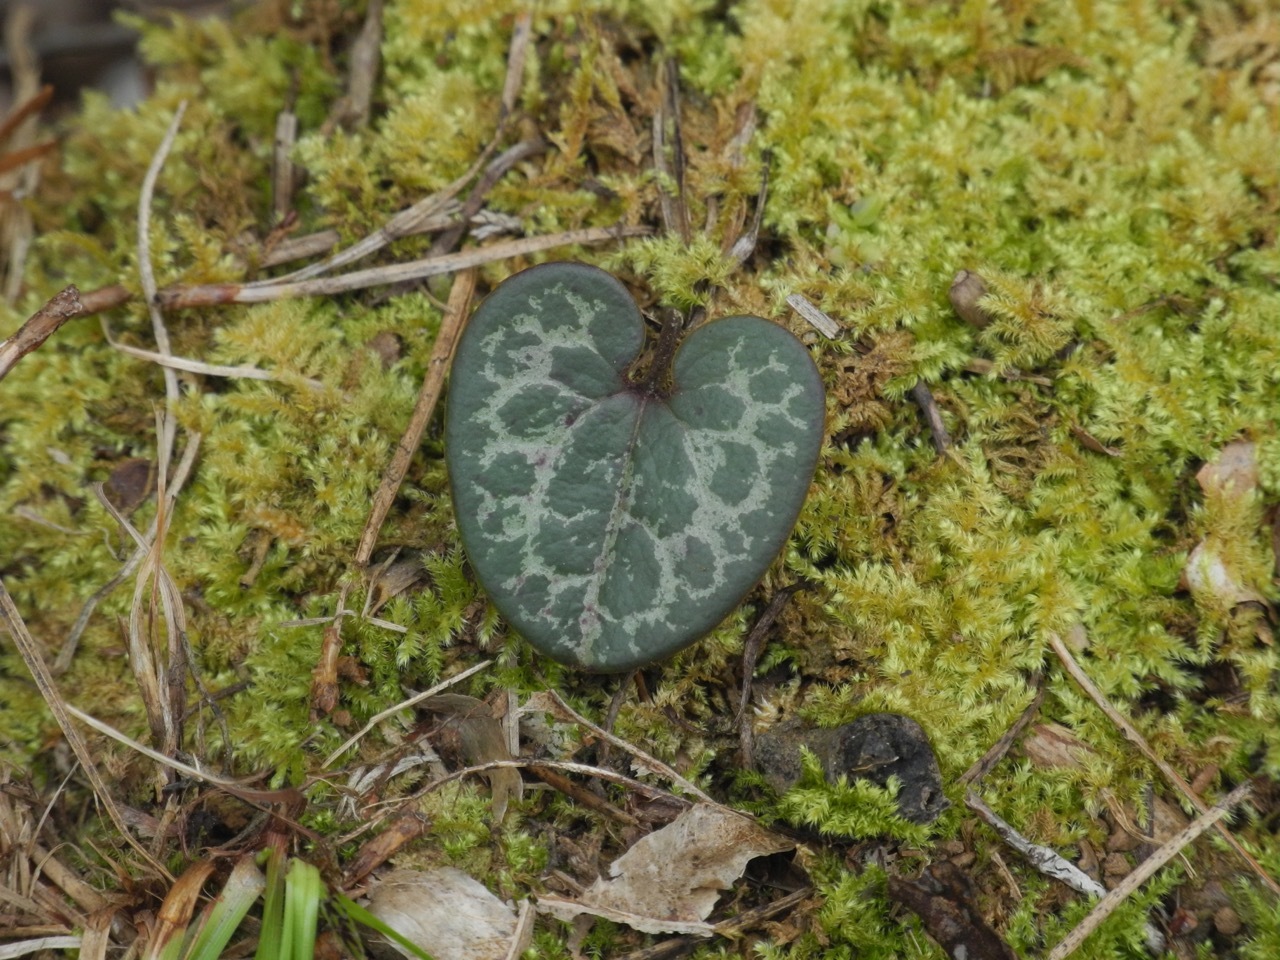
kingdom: Plantae
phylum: Tracheophyta
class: Magnoliopsida
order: Piperales
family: Aristolochiaceae
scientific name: Aristolochiaceae
